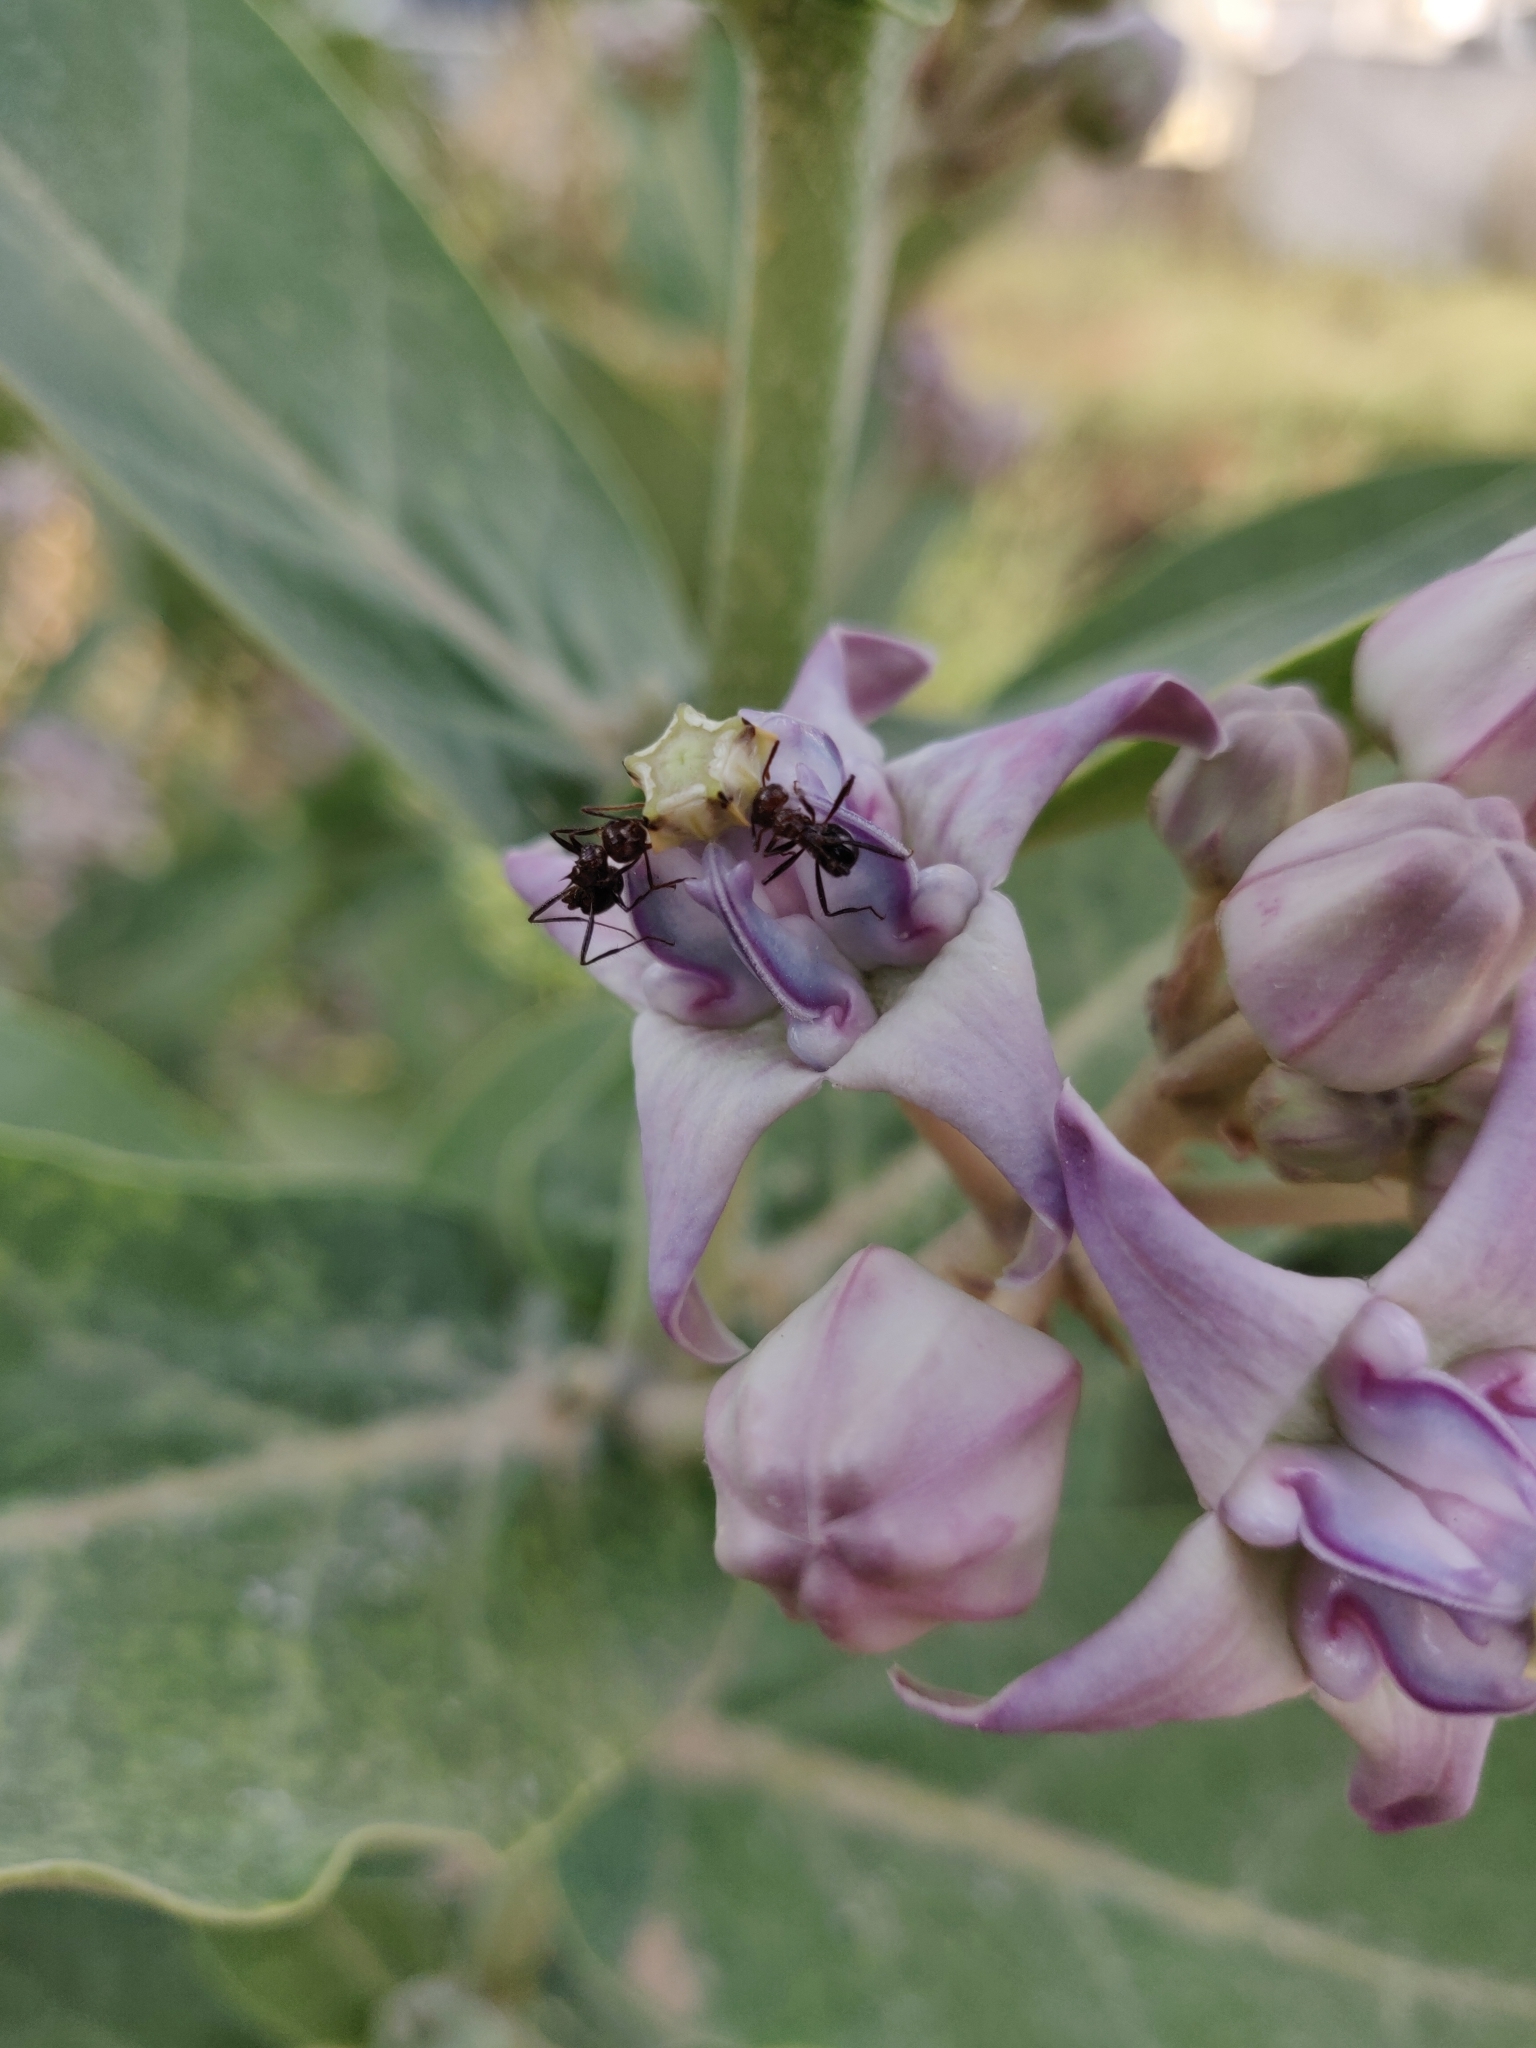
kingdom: Plantae
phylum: Tracheophyta
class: Magnoliopsida
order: Gentianales
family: Apocynaceae
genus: Calotropis
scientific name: Calotropis gigantea
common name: Crown flower
